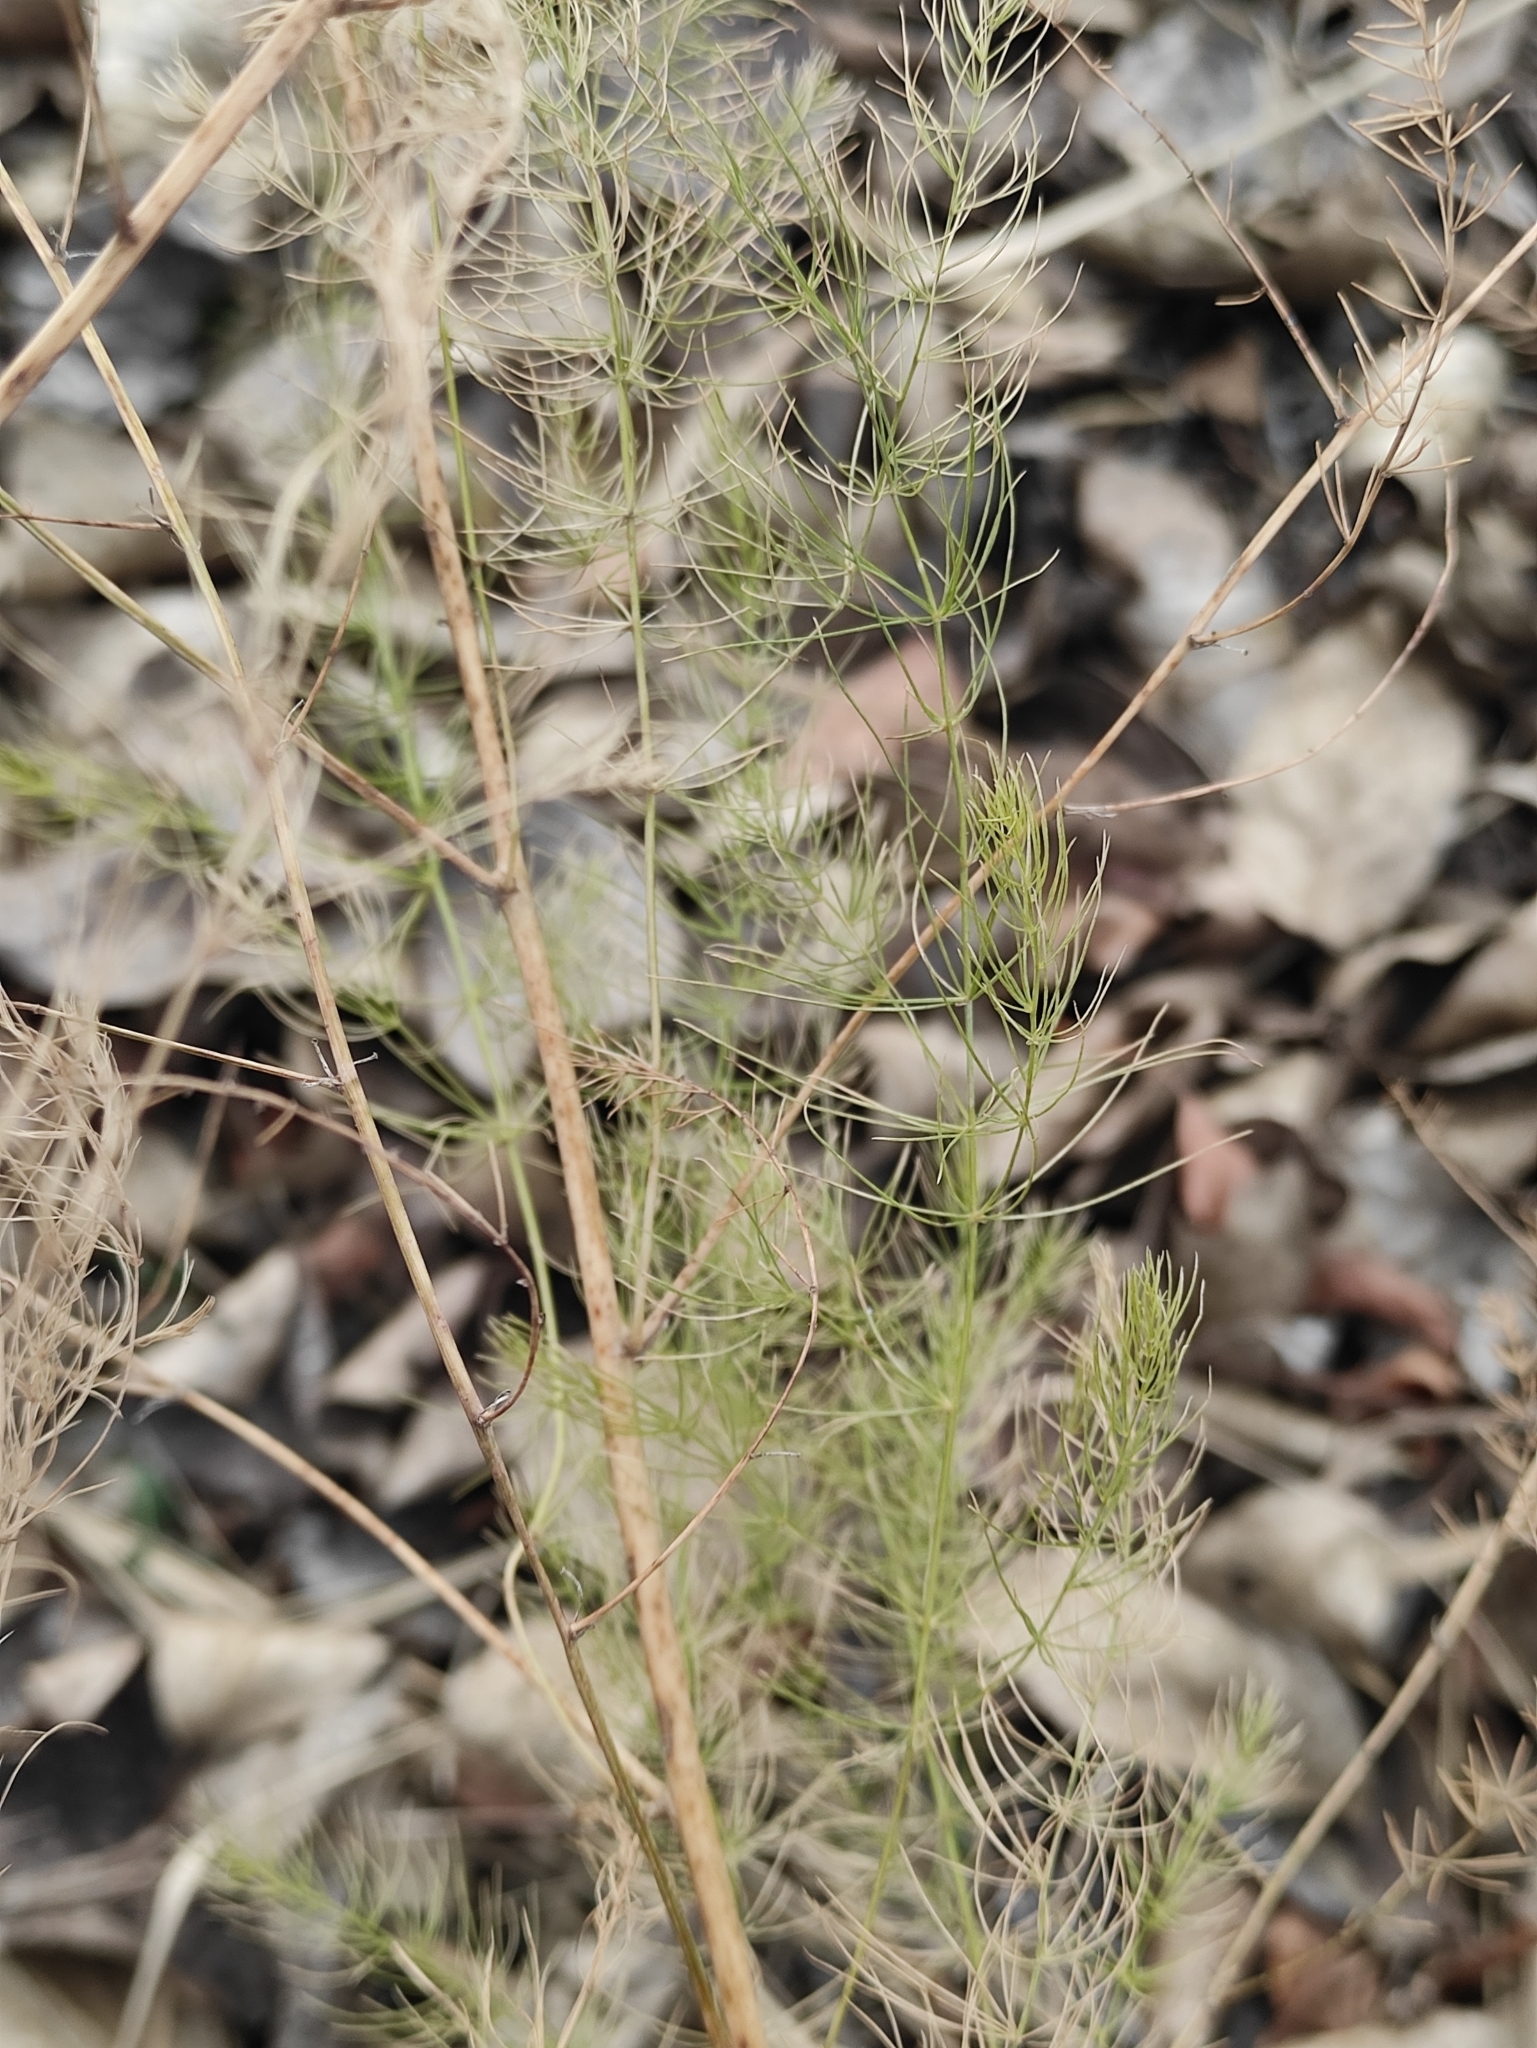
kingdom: Plantae
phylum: Tracheophyta
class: Liliopsida
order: Asparagales
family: Asparagaceae
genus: Asparagus
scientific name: Asparagus officinalis
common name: Garden asparagus
